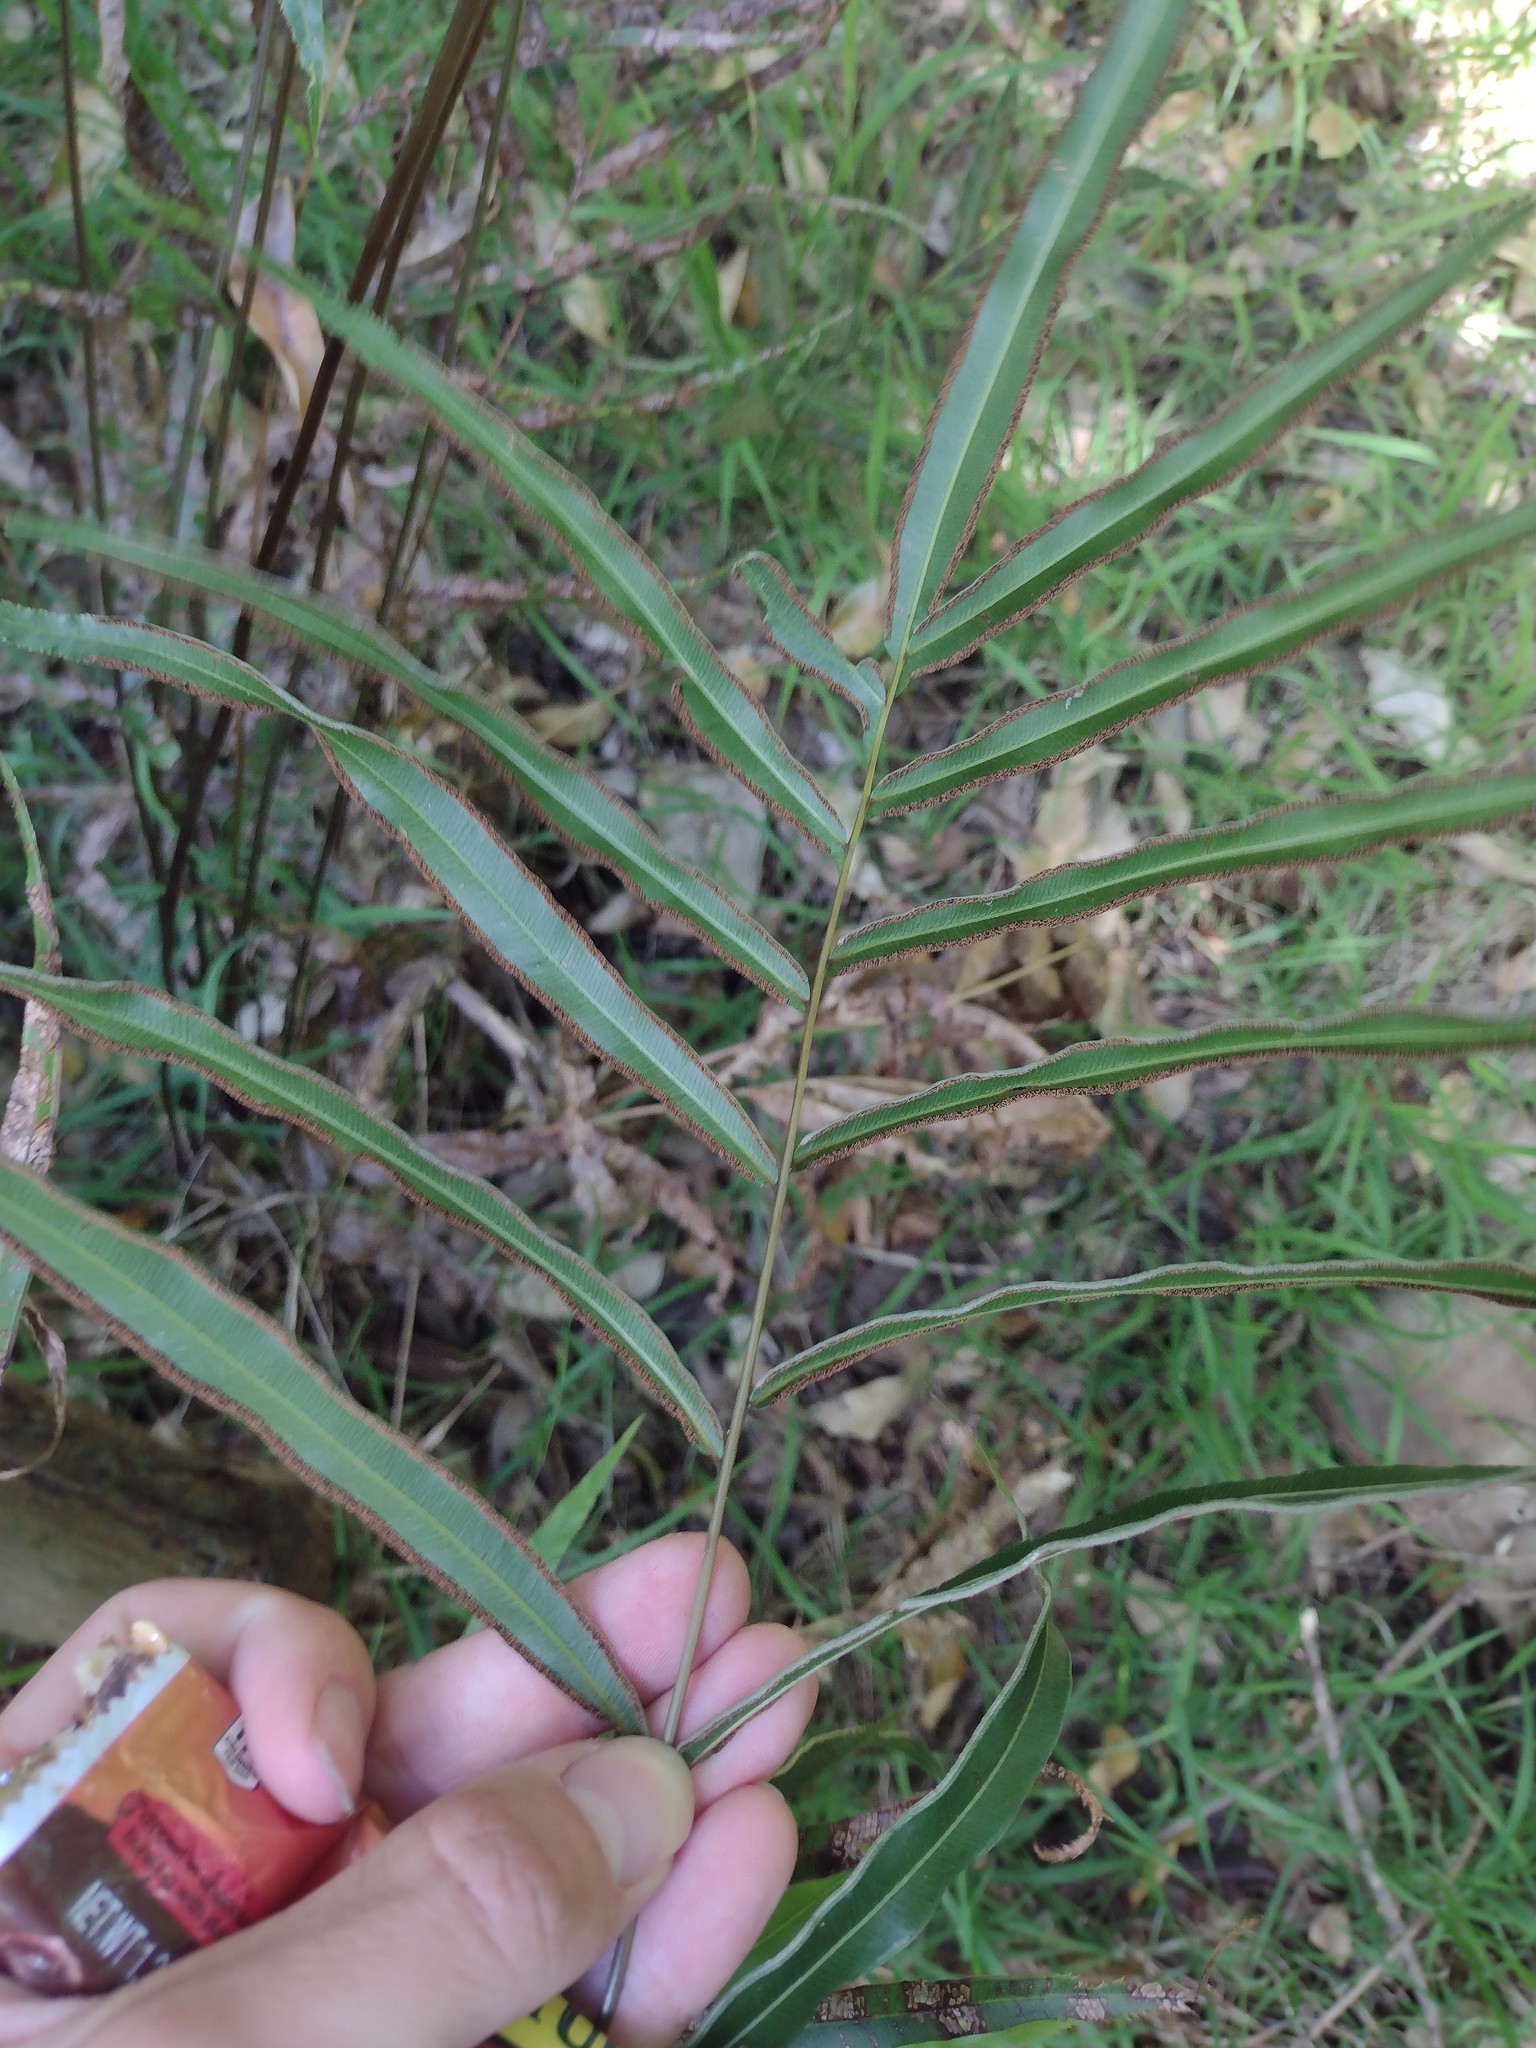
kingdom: Plantae
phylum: Tracheophyta
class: Polypodiopsida
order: Polypodiales
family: Pteridaceae
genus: Pteris
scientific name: Pteris cretica
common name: Ribbon fern
